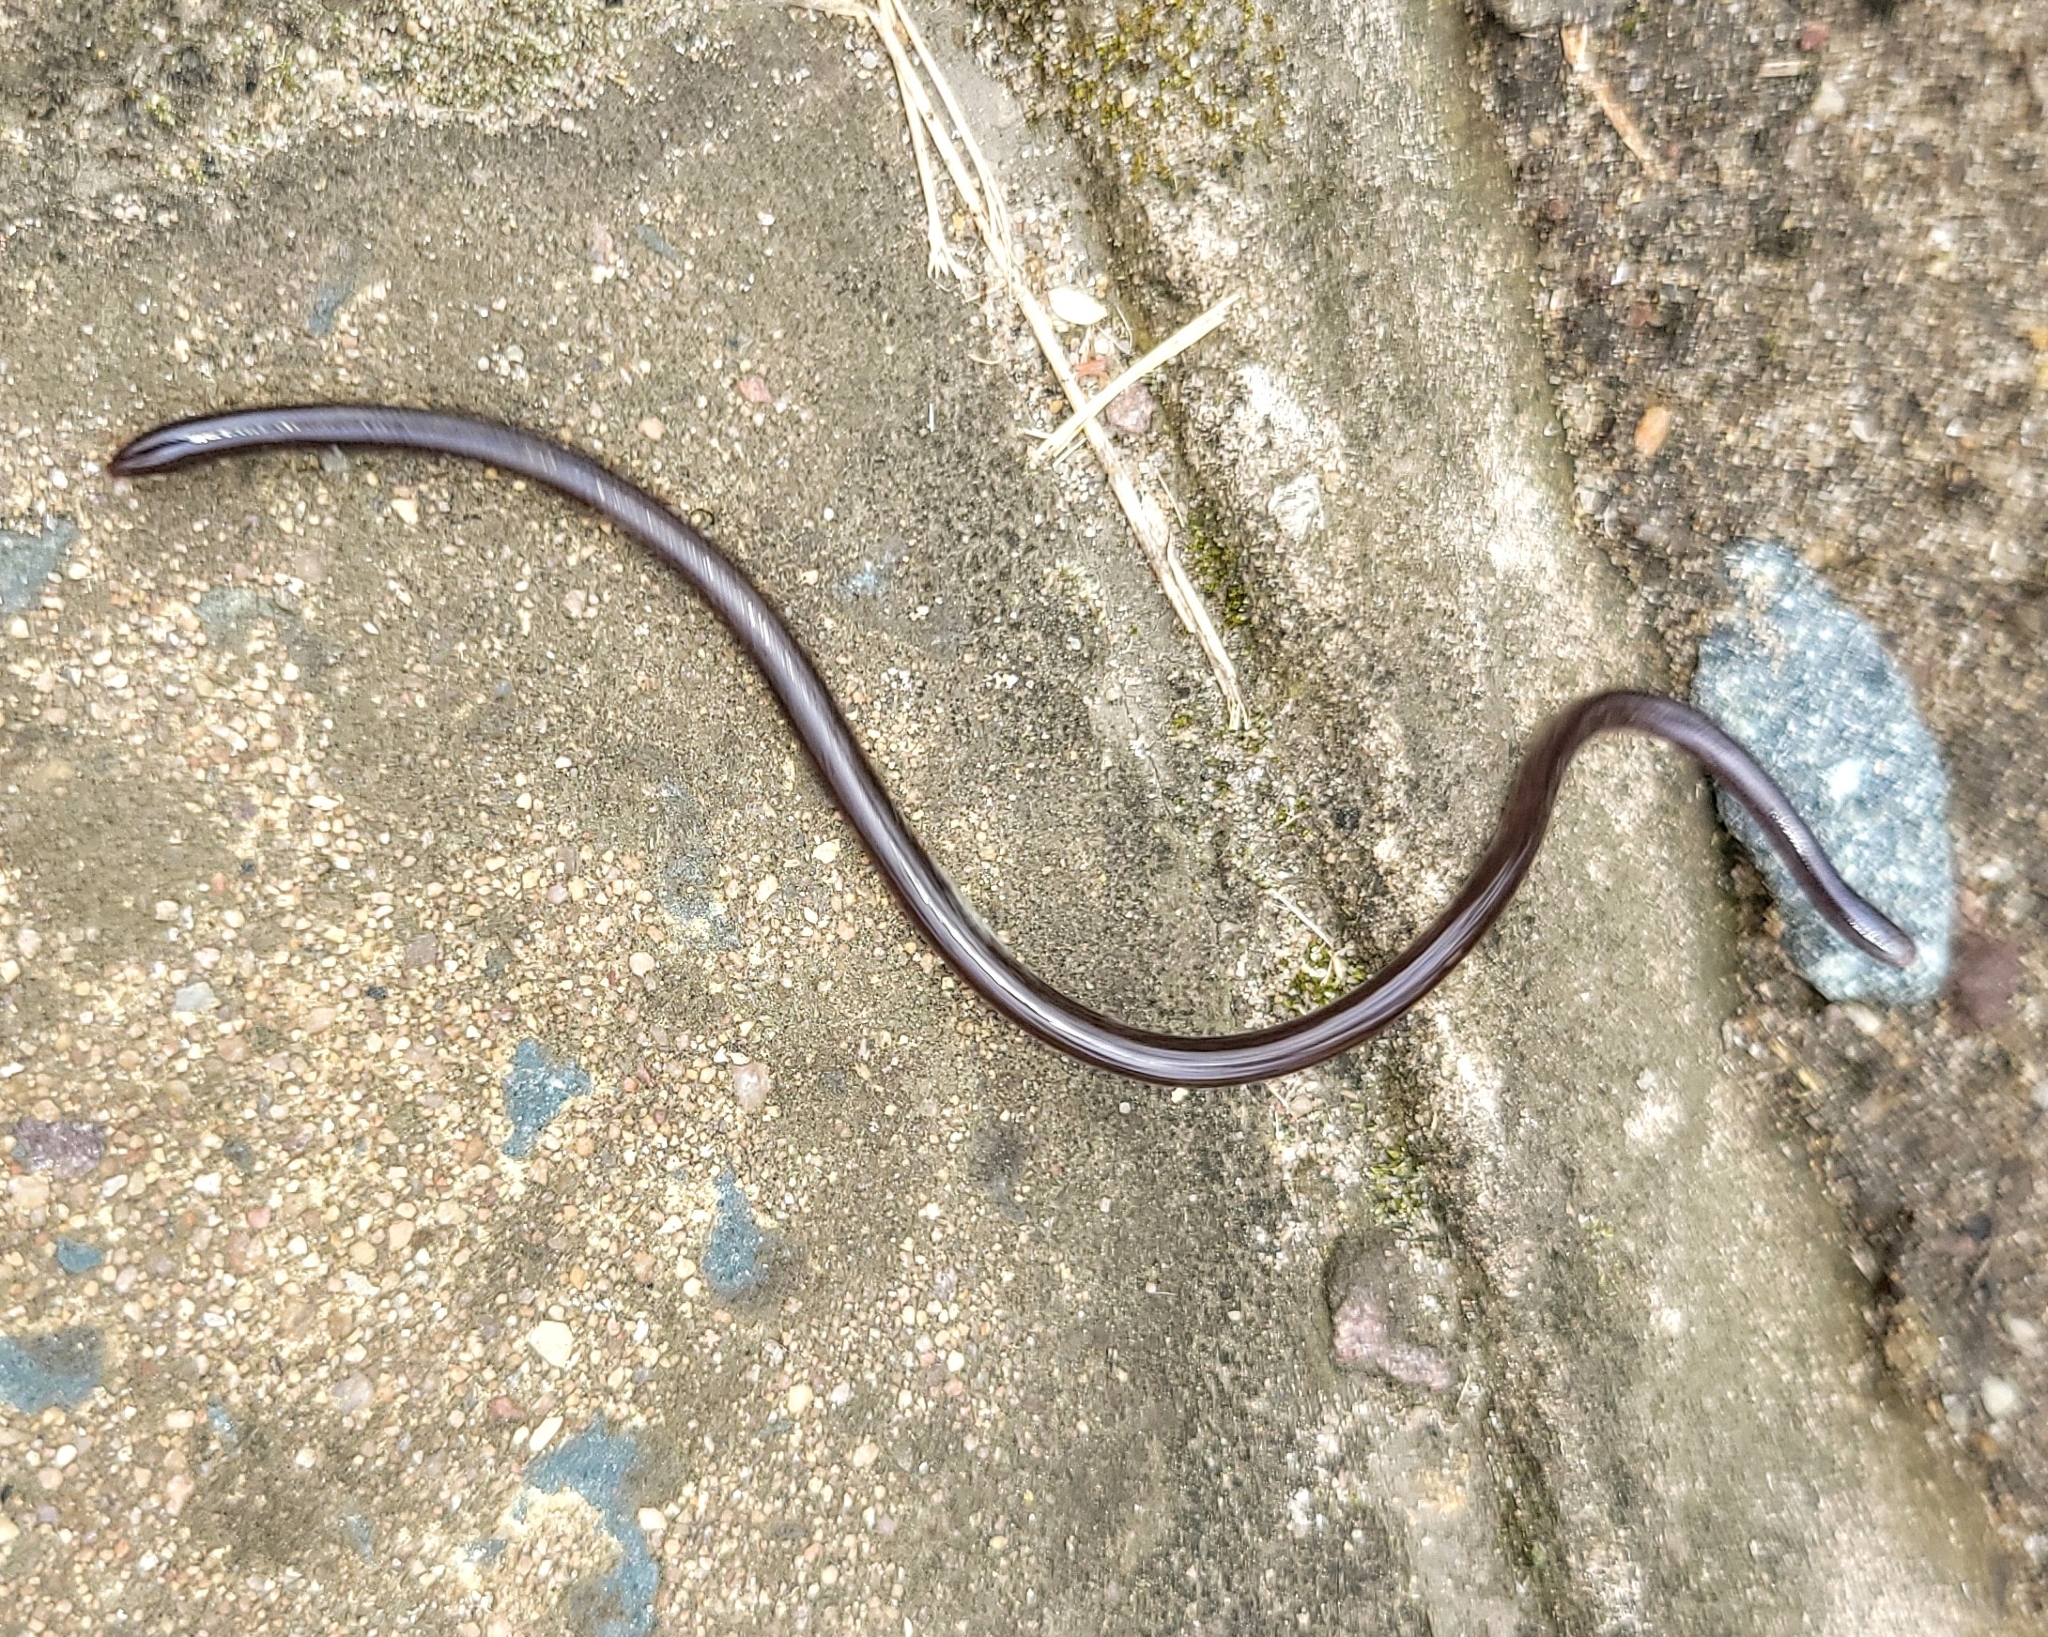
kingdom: Animalia
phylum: Chordata
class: Squamata
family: Typhlopidae
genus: Indotyphlops
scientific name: Indotyphlops braminus
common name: Brahminy blindsnake
